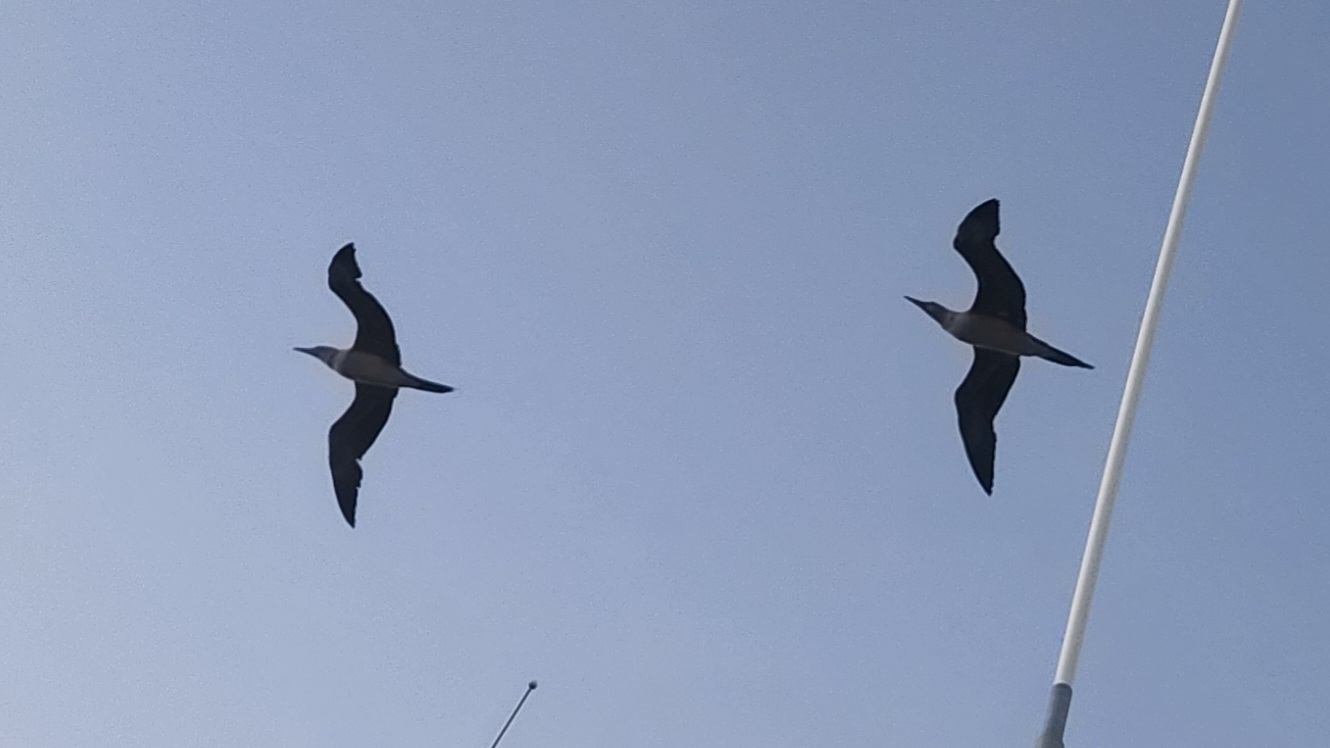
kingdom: Animalia
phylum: Chordata
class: Aves
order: Suliformes
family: Sulidae
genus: Sula
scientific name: Sula sula
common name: Red-footed booby
